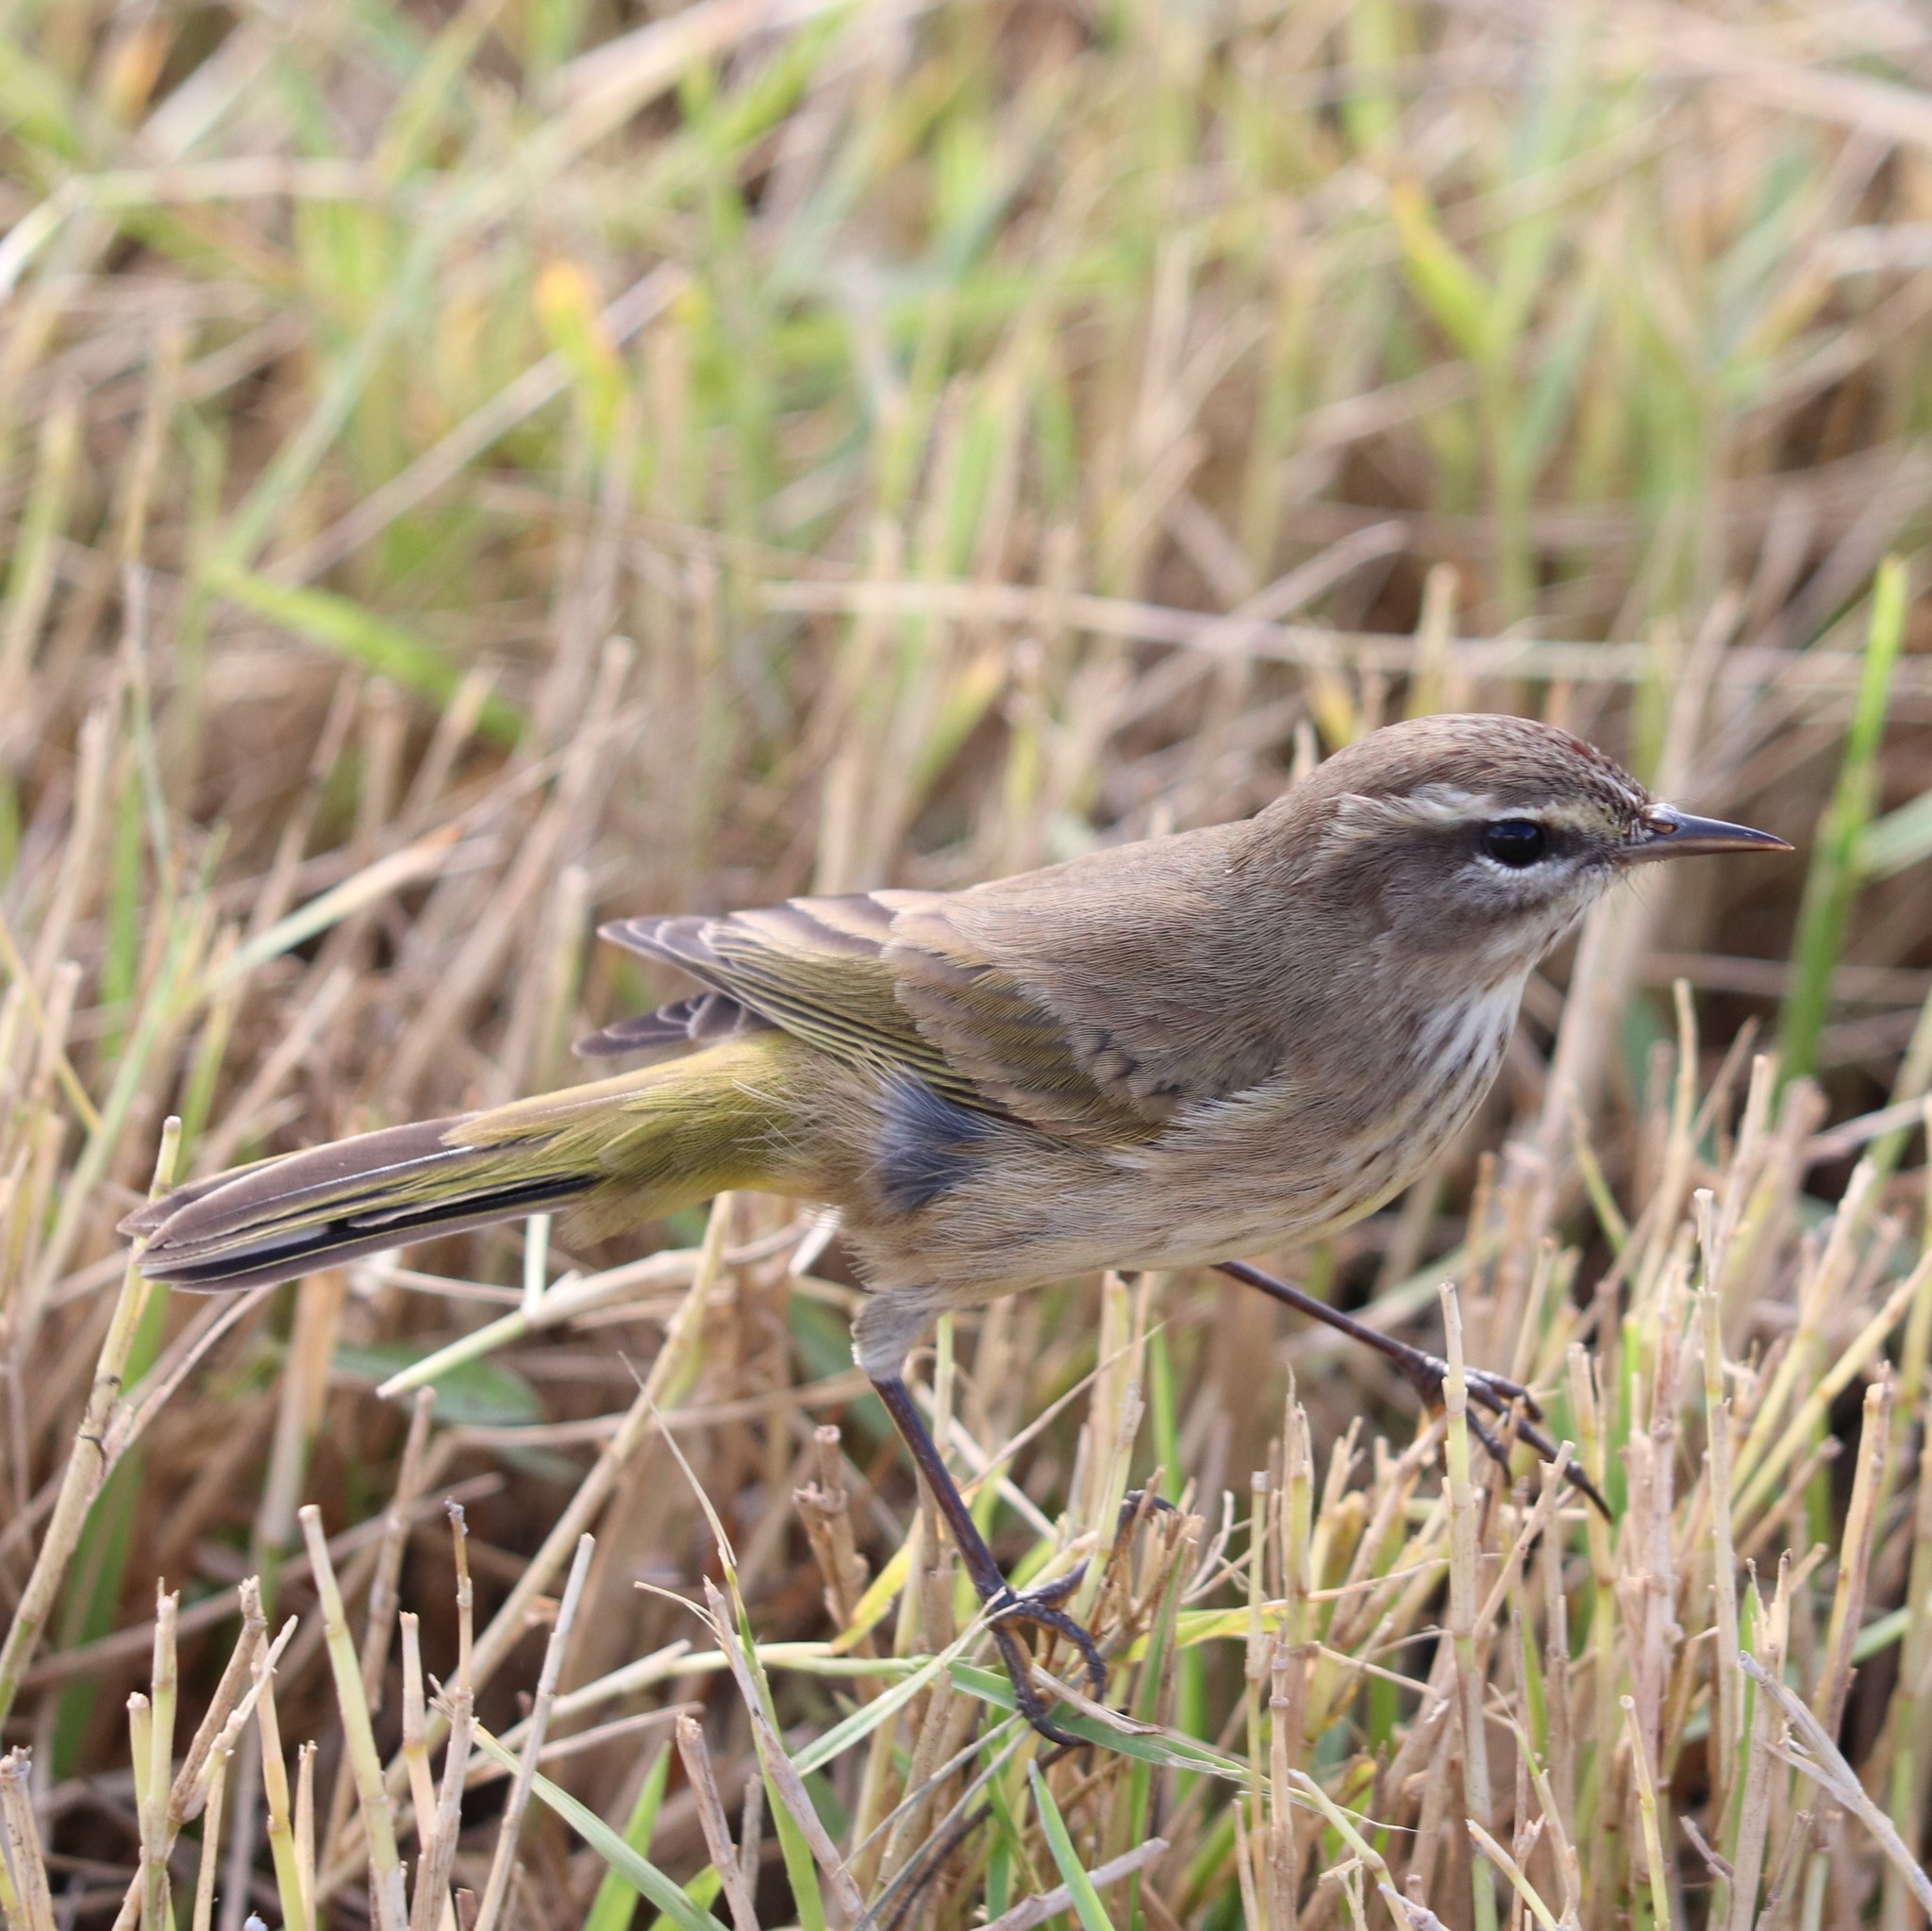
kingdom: Animalia
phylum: Chordata
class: Aves
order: Passeriformes
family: Parulidae
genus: Setophaga
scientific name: Setophaga palmarum
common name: Palm warbler
